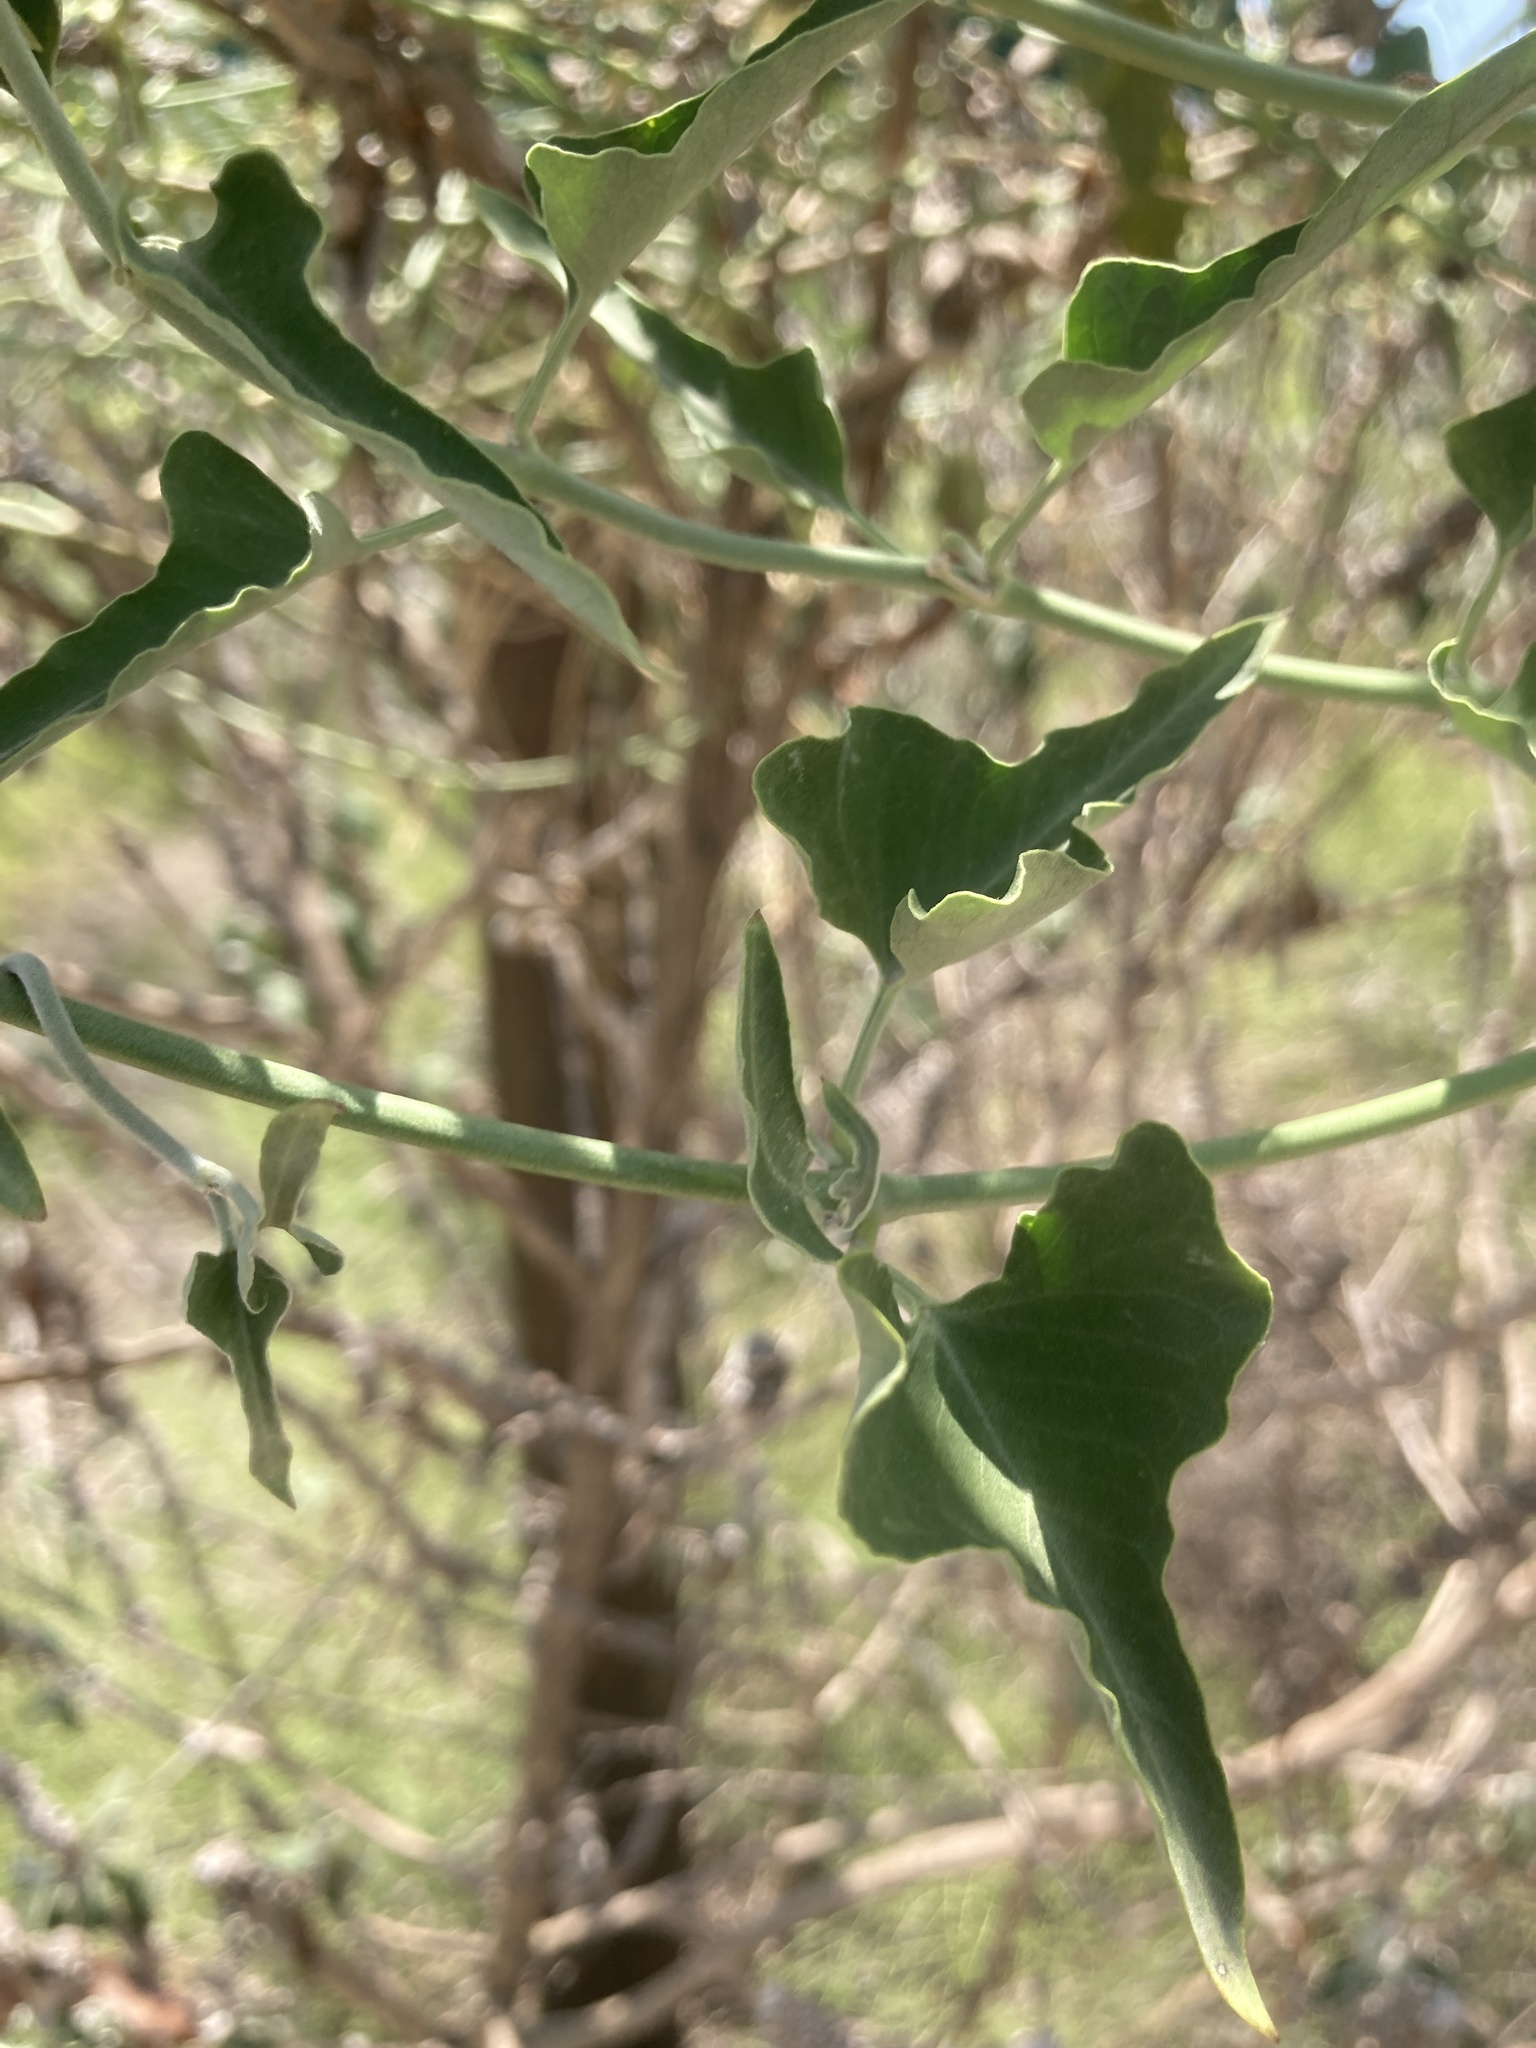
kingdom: Plantae
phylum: Tracheophyta
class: Magnoliopsida
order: Gentianales
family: Apocynaceae
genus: Araujia
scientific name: Araujia odorata
